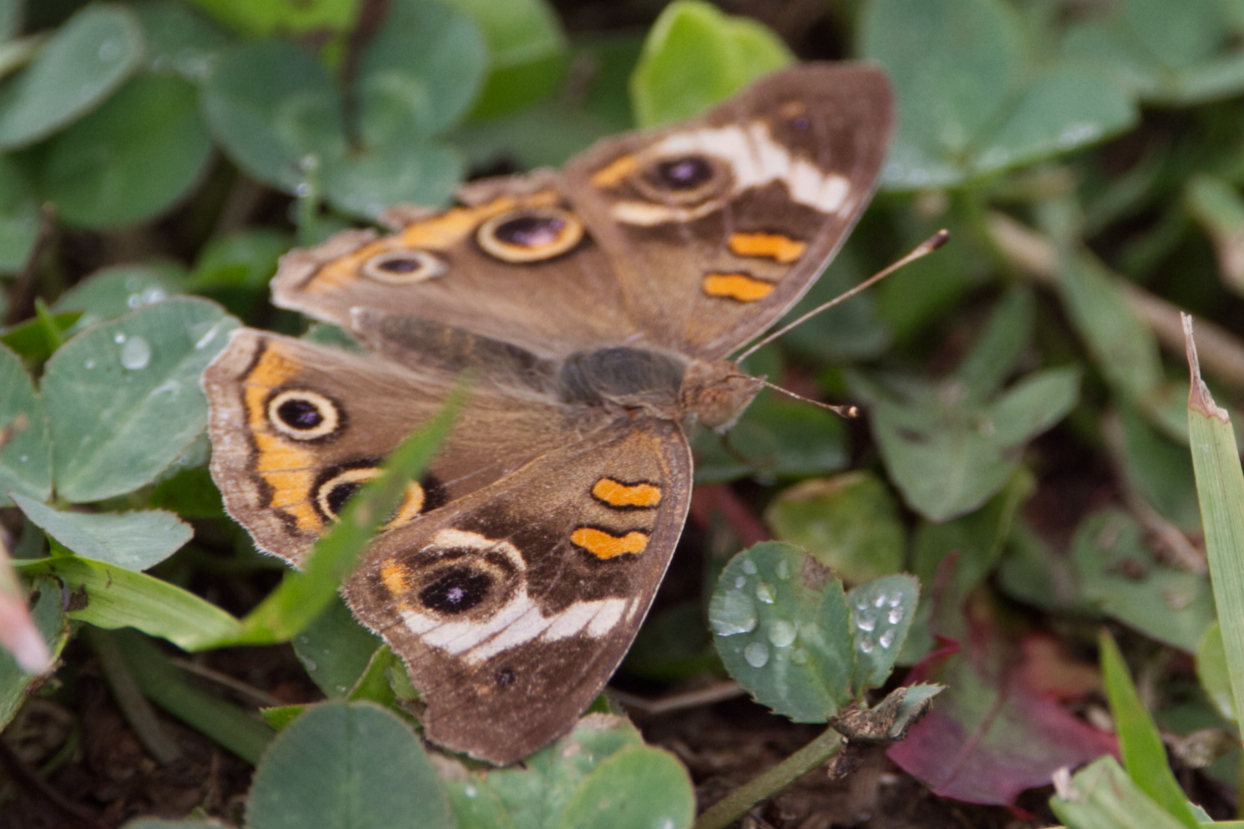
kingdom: Animalia
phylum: Arthropoda
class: Insecta
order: Lepidoptera
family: Nymphalidae
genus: Junonia
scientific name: Junonia coenia
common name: Common buckeye
